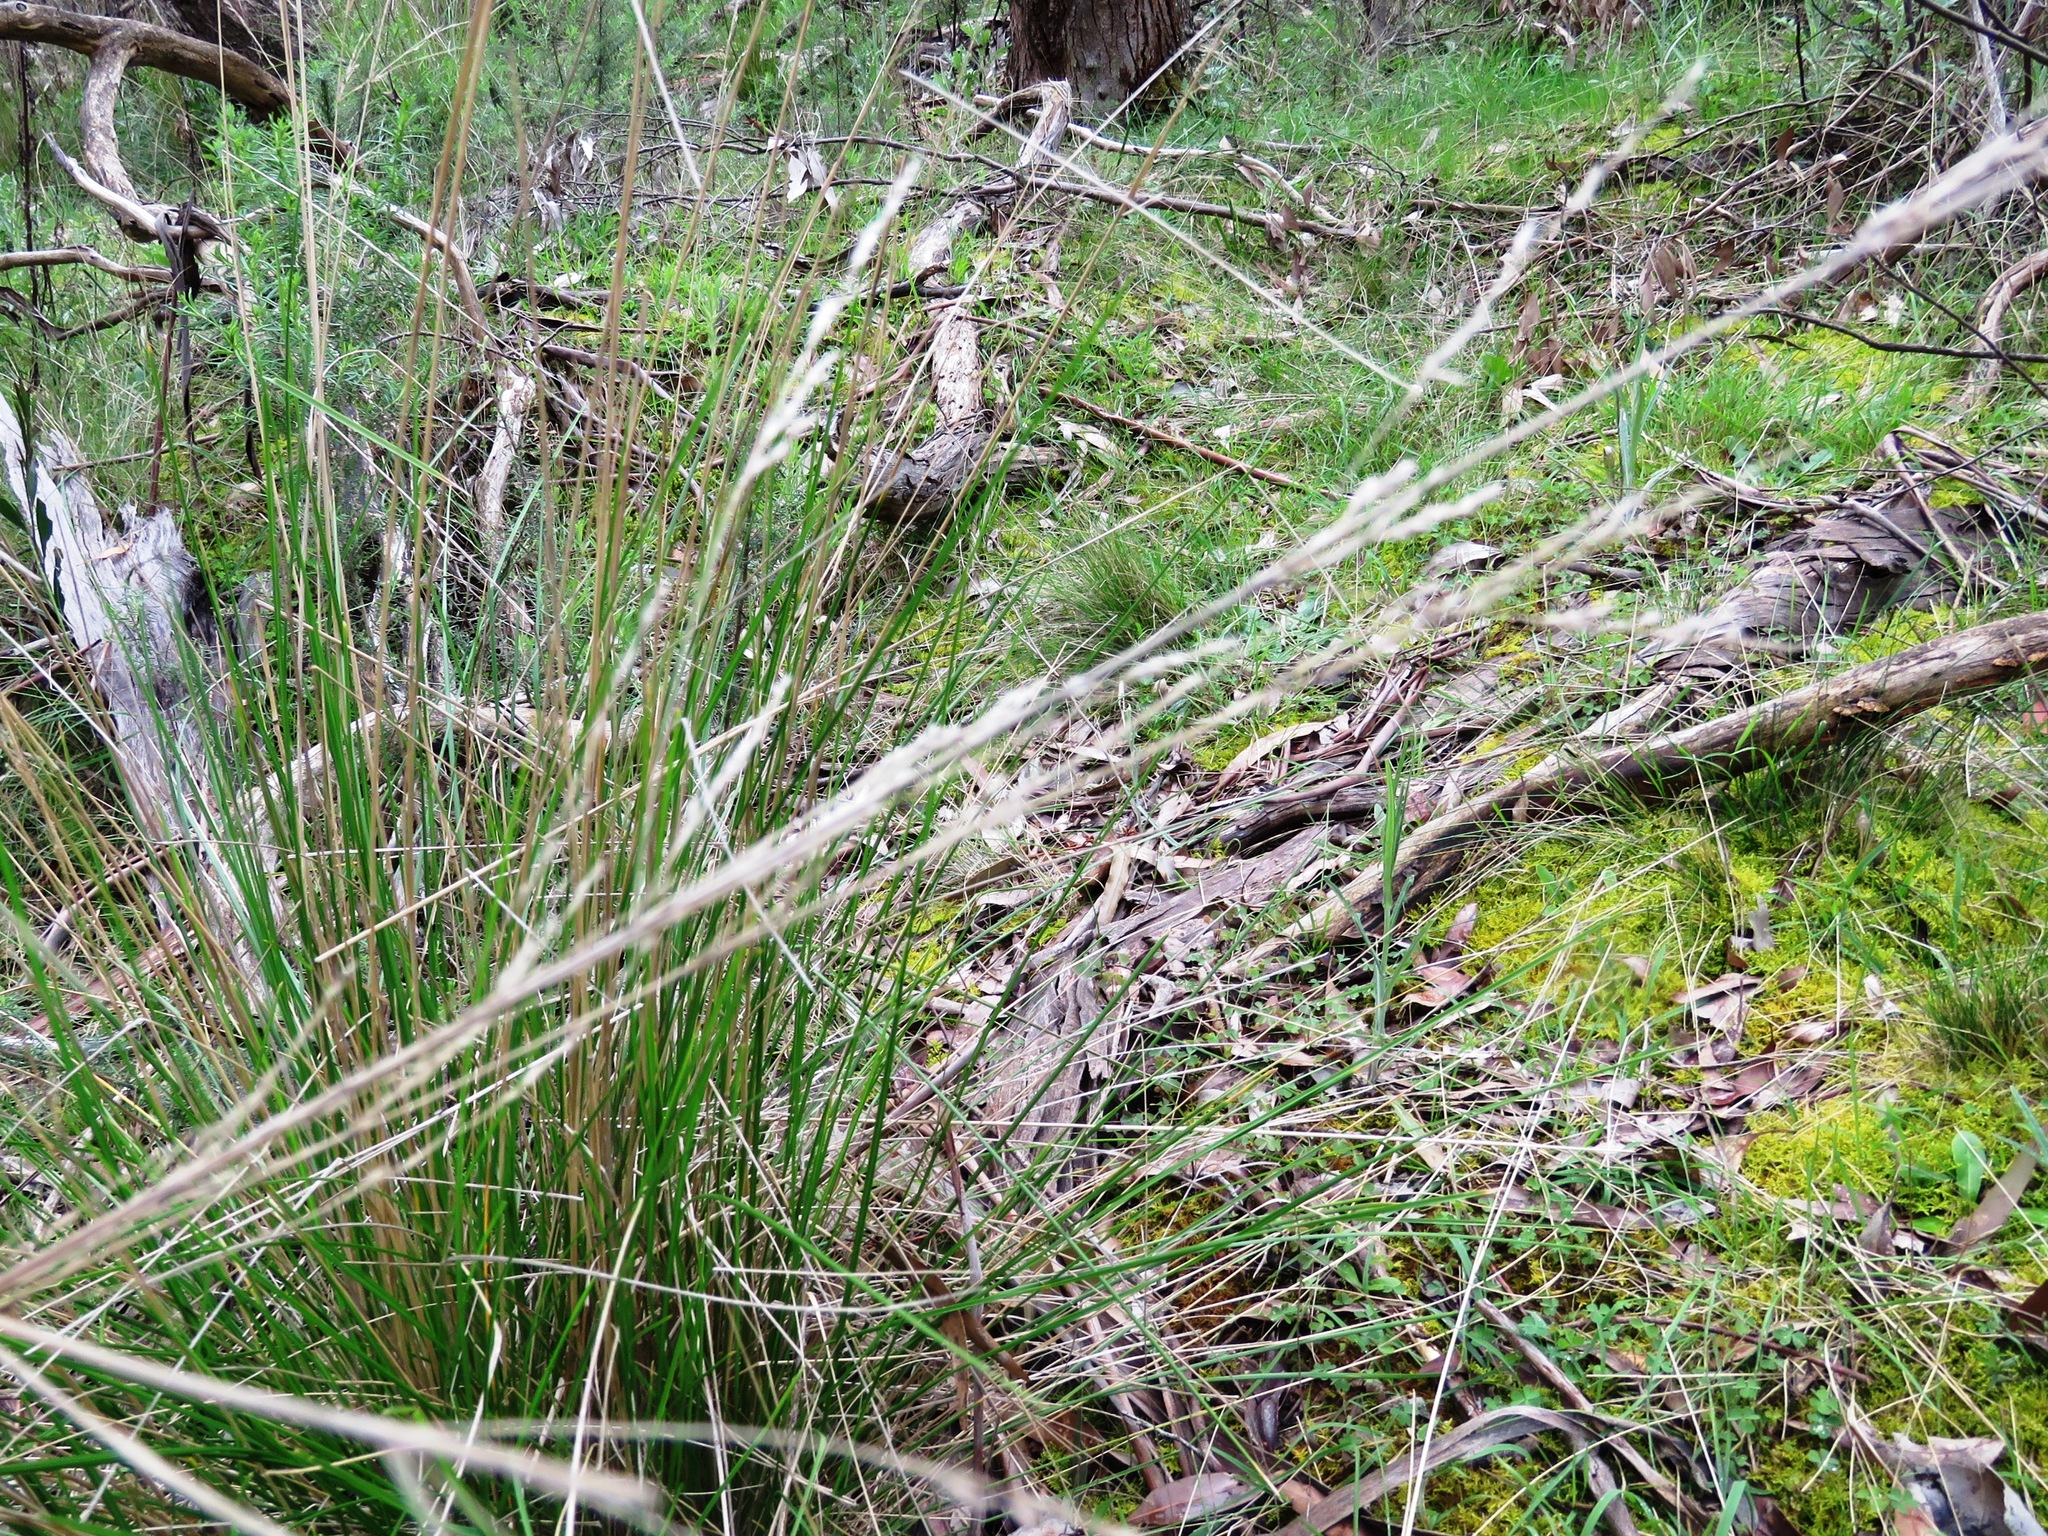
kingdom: Plantae
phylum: Tracheophyta
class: Liliopsida
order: Poales
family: Poaceae
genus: Poa
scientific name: Poa labillardierei
